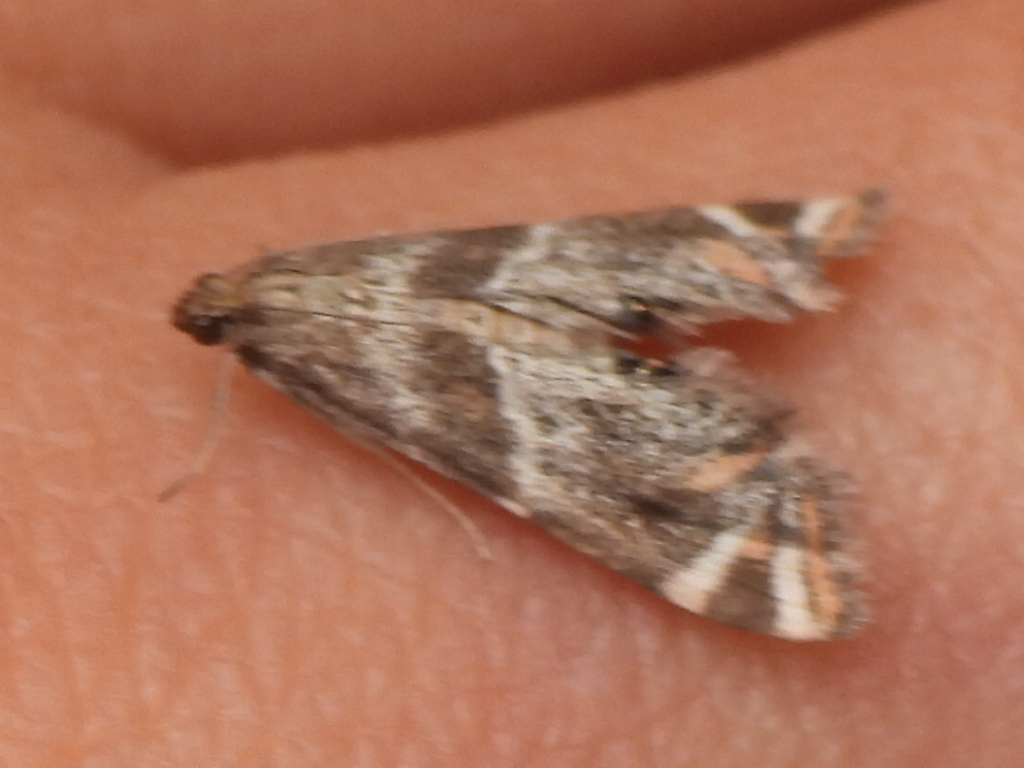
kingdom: Animalia
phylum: Arthropoda
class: Insecta
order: Lepidoptera
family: Crambidae
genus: Petrophila
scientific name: Petrophila jaliscalis
